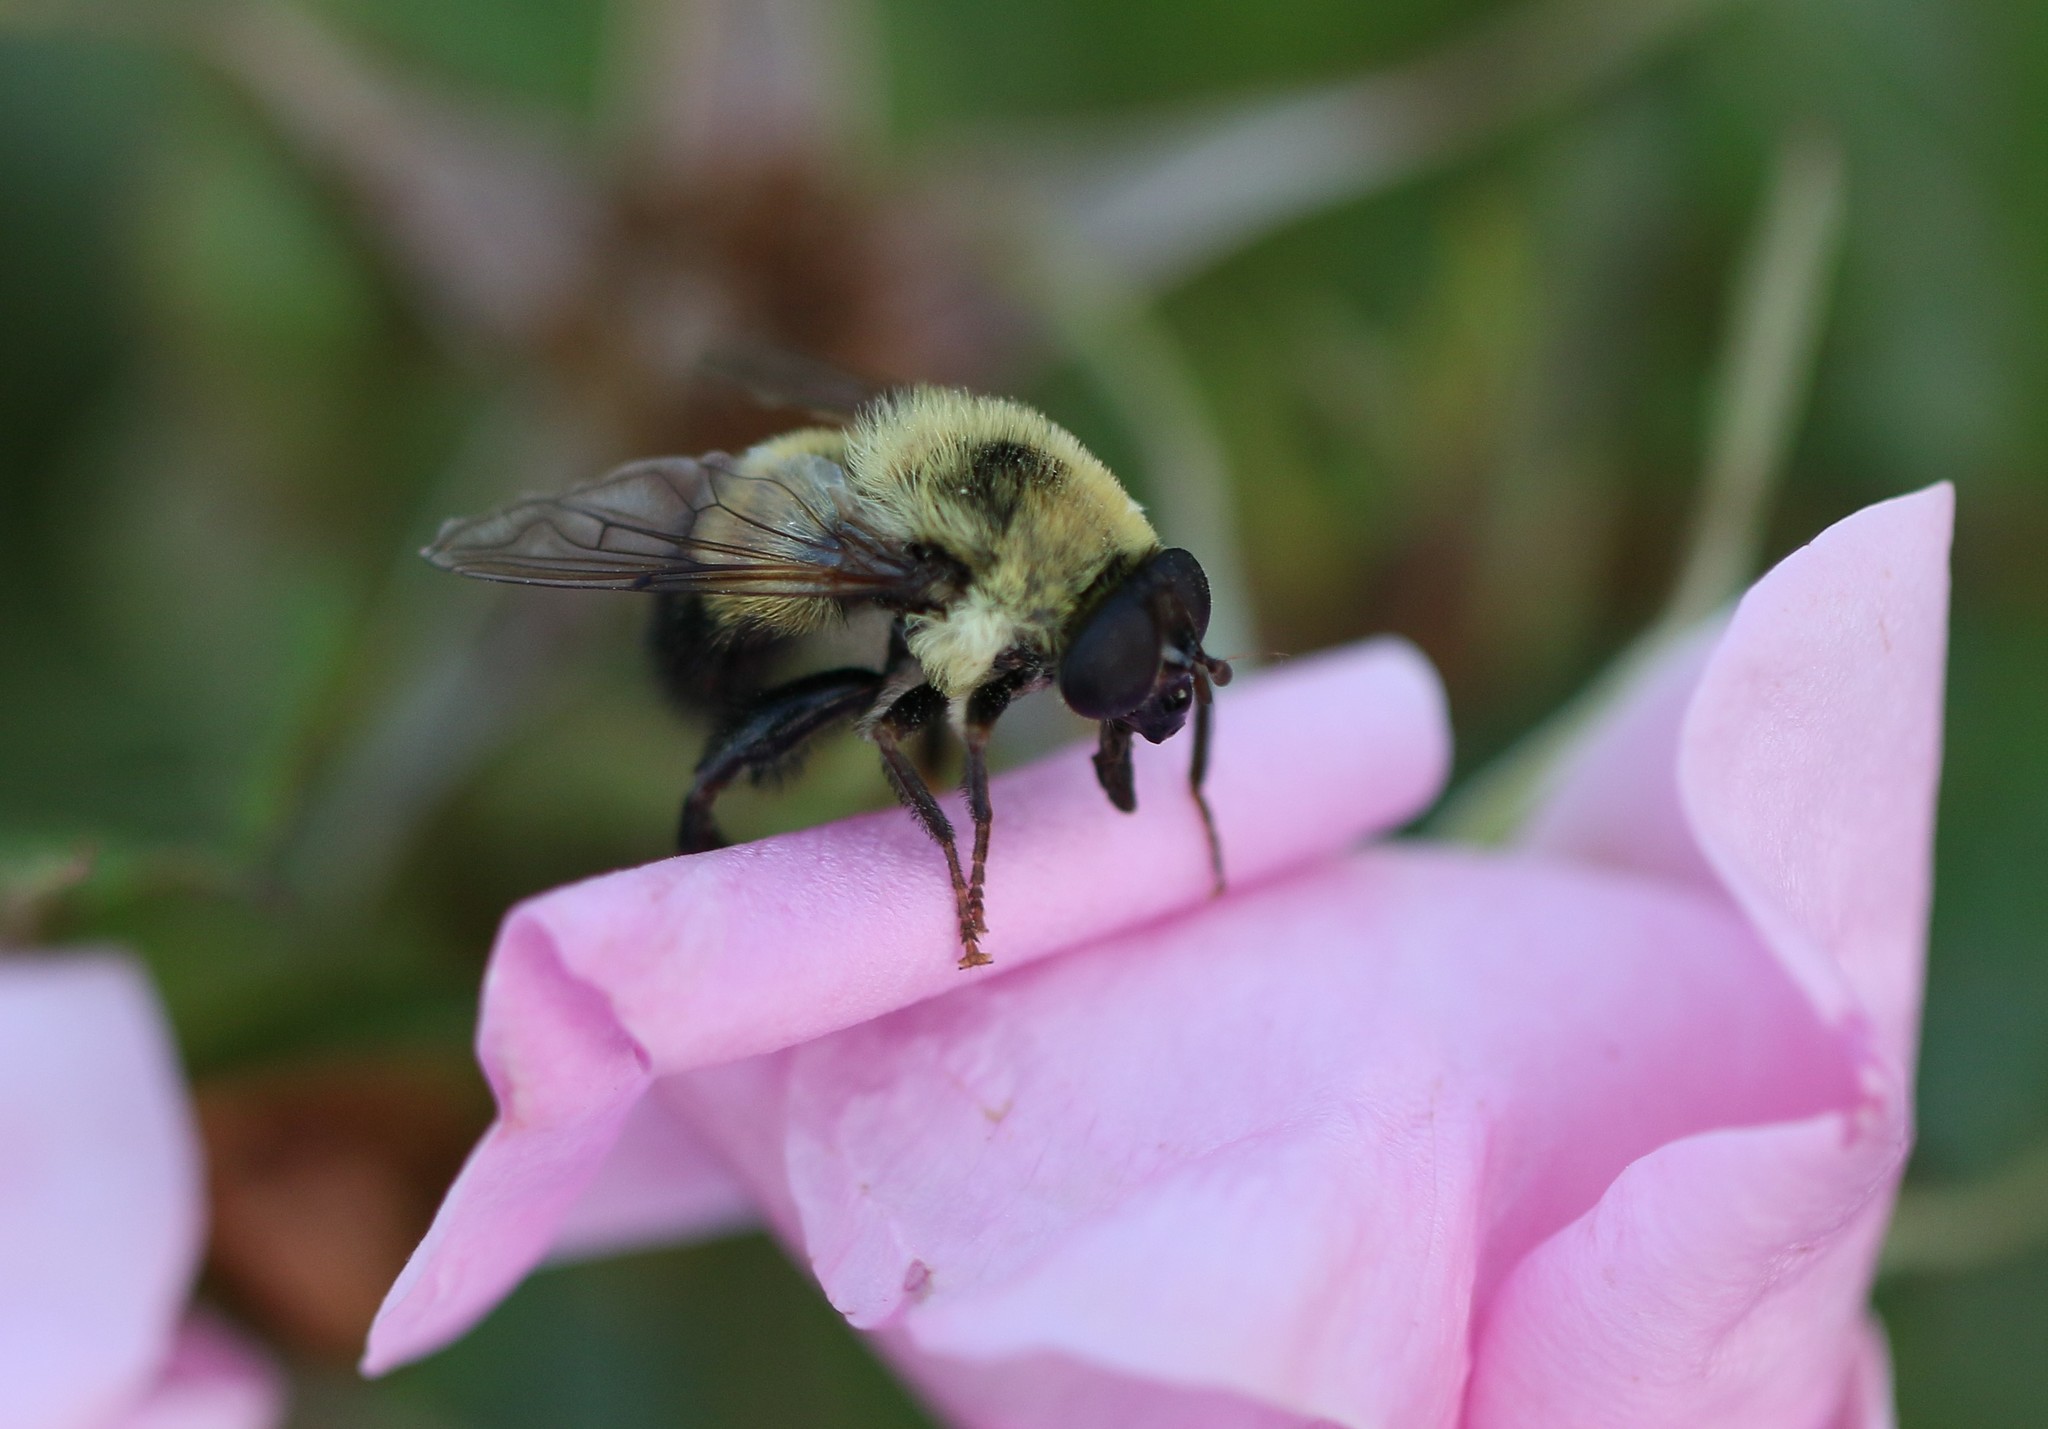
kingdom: Animalia
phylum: Arthropoda
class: Insecta
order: Diptera
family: Syrphidae
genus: Imatisma
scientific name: Imatisma posticata
